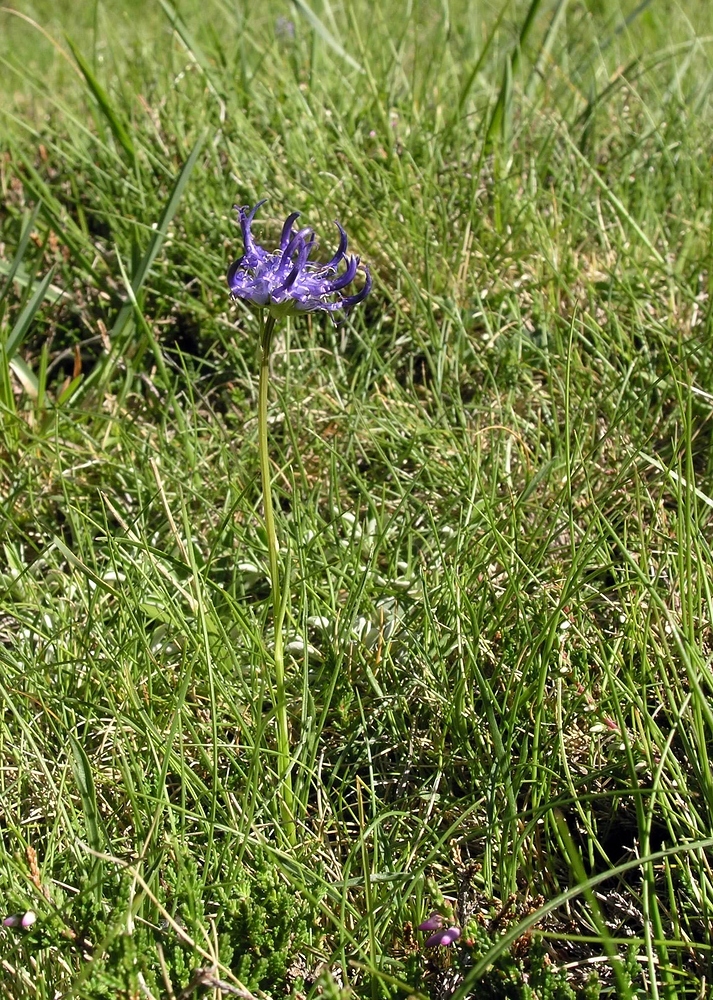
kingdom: Plantae
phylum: Tracheophyta
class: Magnoliopsida
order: Asterales
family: Campanulaceae
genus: Phyteuma
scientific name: Phyteuma hemisphaericum
